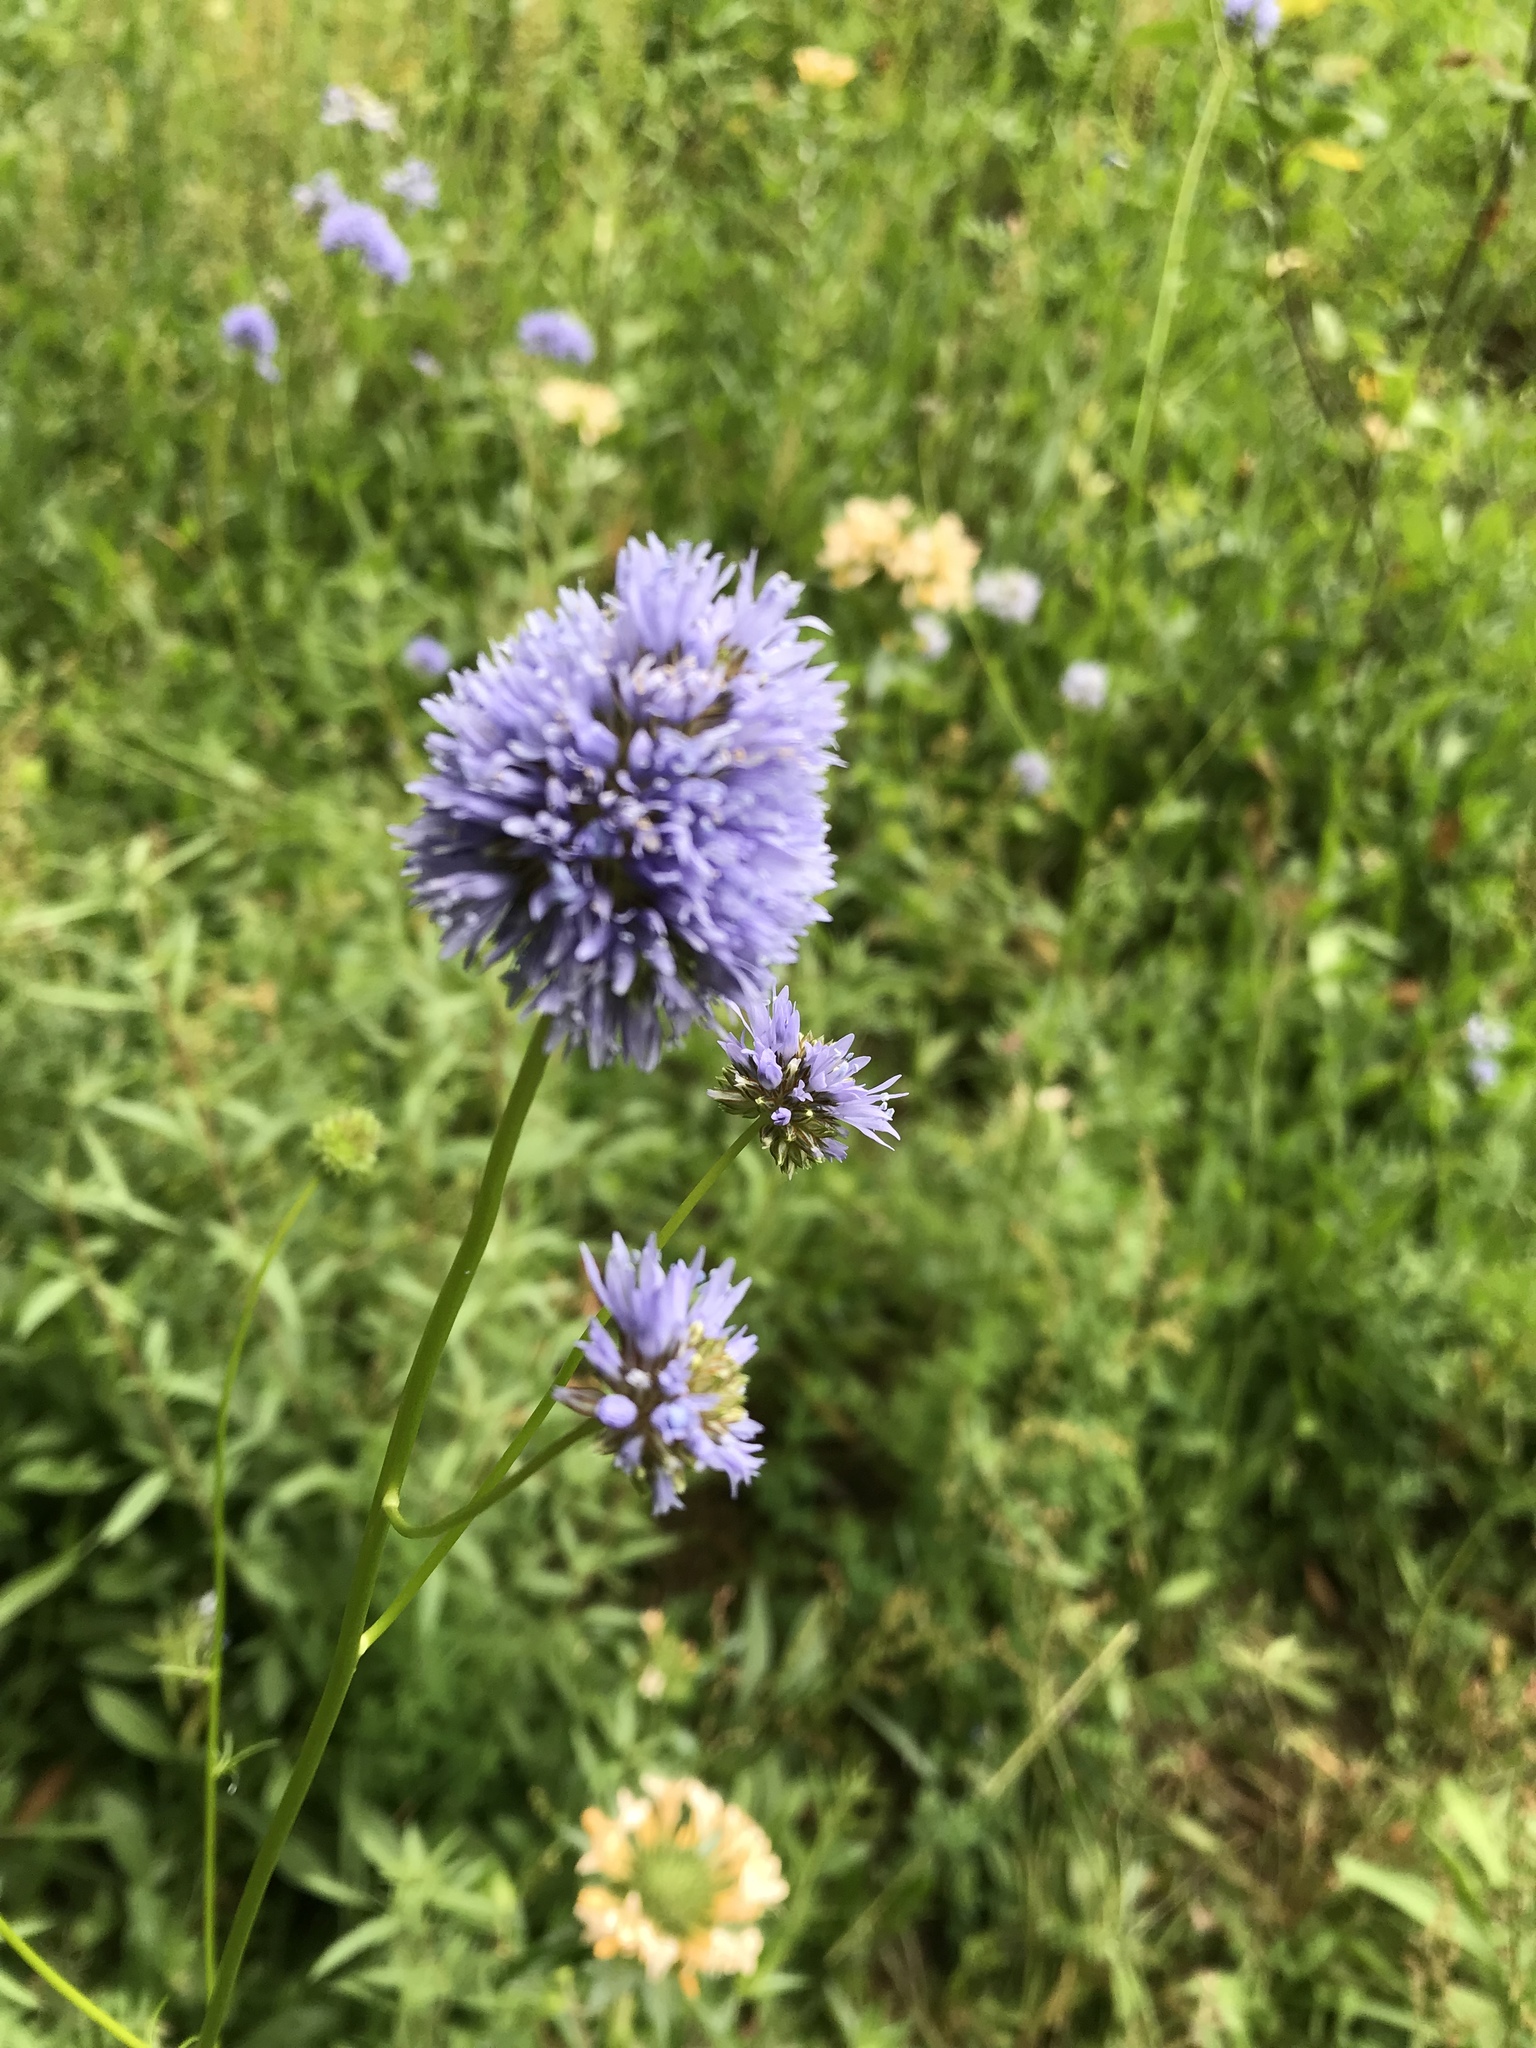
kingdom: Plantae
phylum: Tracheophyta
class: Magnoliopsida
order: Ericales
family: Polemoniaceae
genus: Gilia
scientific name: Gilia capitata
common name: Bluehead gilia
